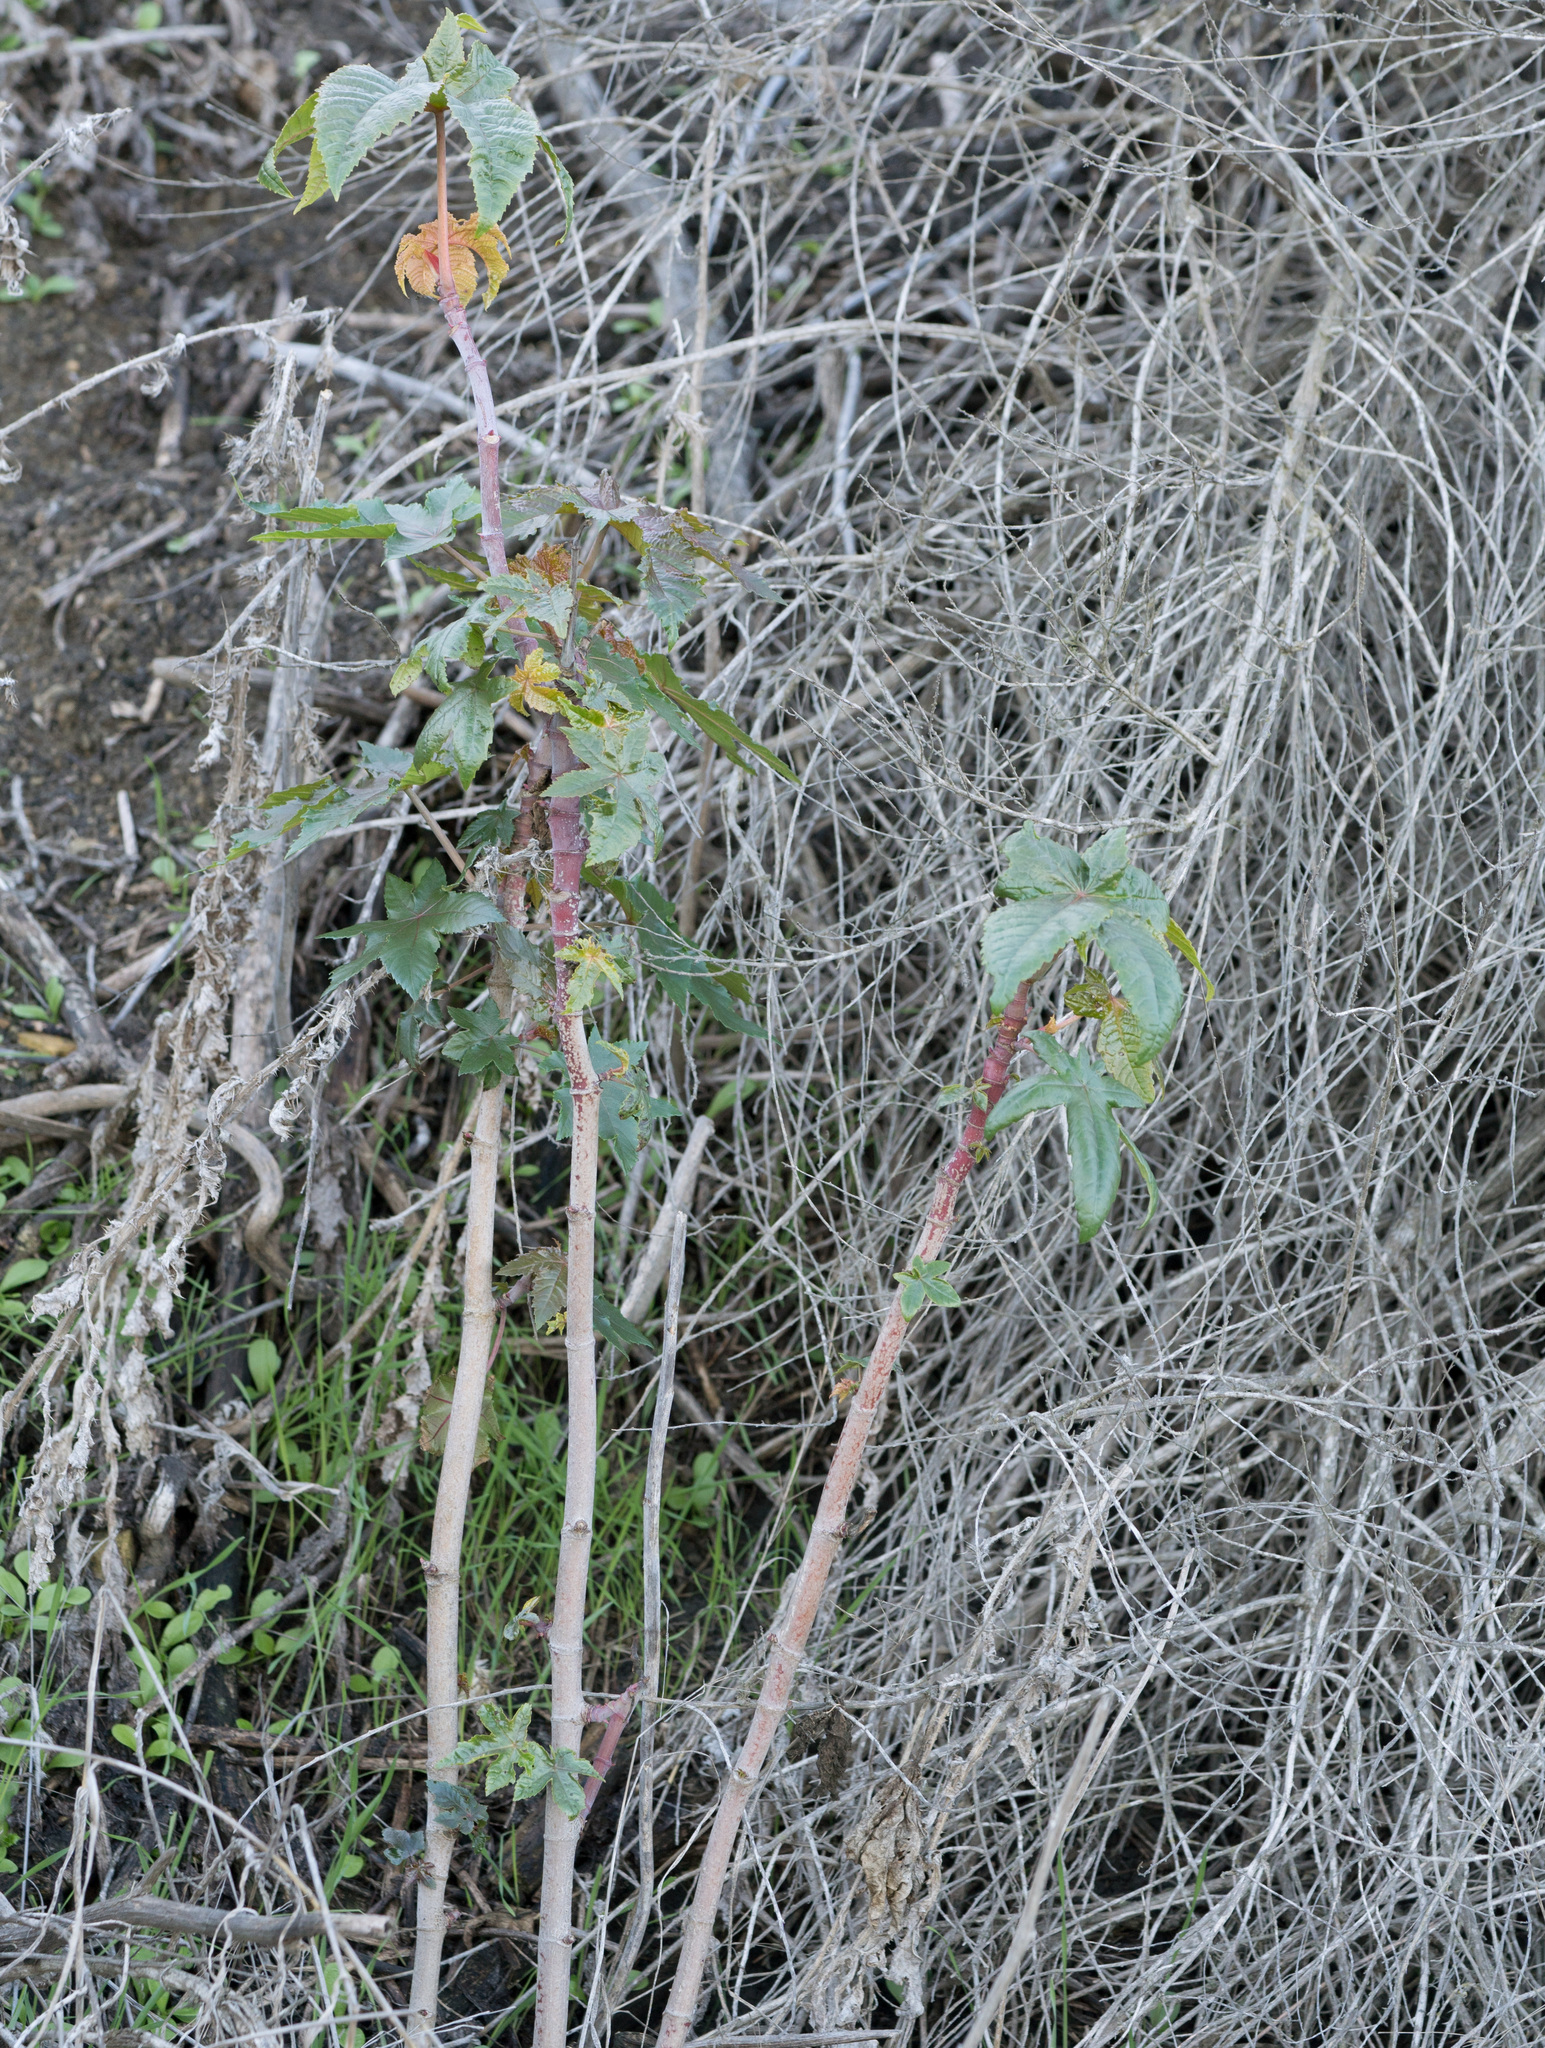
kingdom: Plantae
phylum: Tracheophyta
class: Magnoliopsida
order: Malpighiales
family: Euphorbiaceae
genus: Ricinus
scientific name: Ricinus communis
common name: Castor-oil-plant
